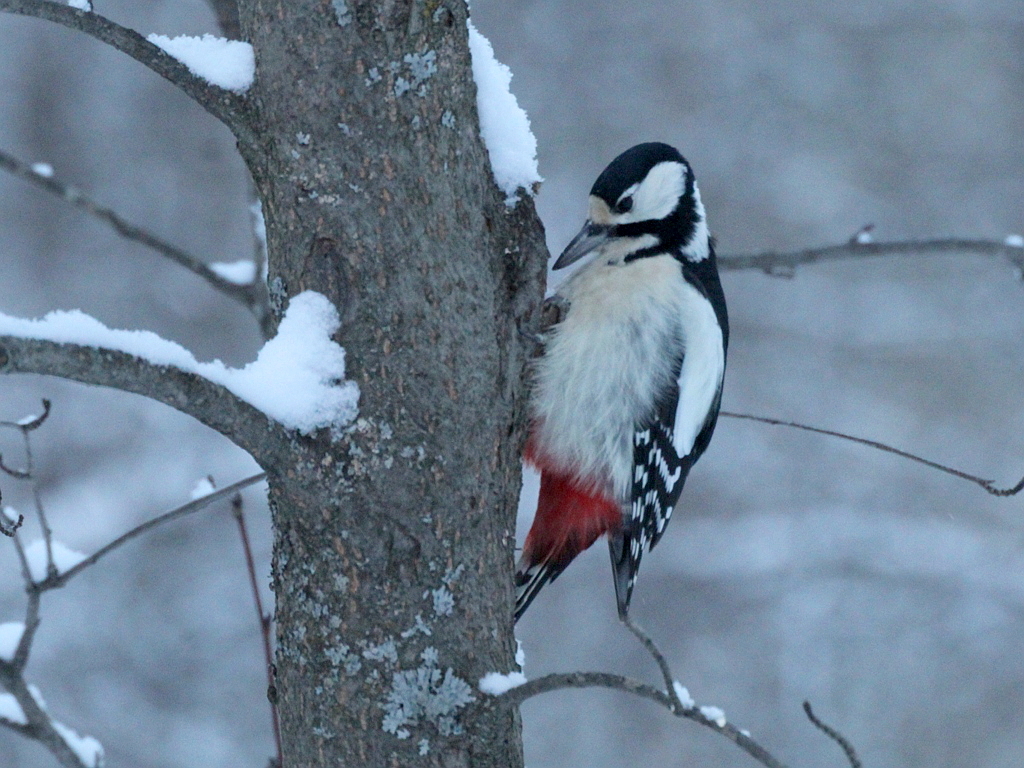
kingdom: Animalia
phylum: Chordata
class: Aves
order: Piciformes
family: Picidae
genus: Dendrocopos
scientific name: Dendrocopos major
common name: Great spotted woodpecker
